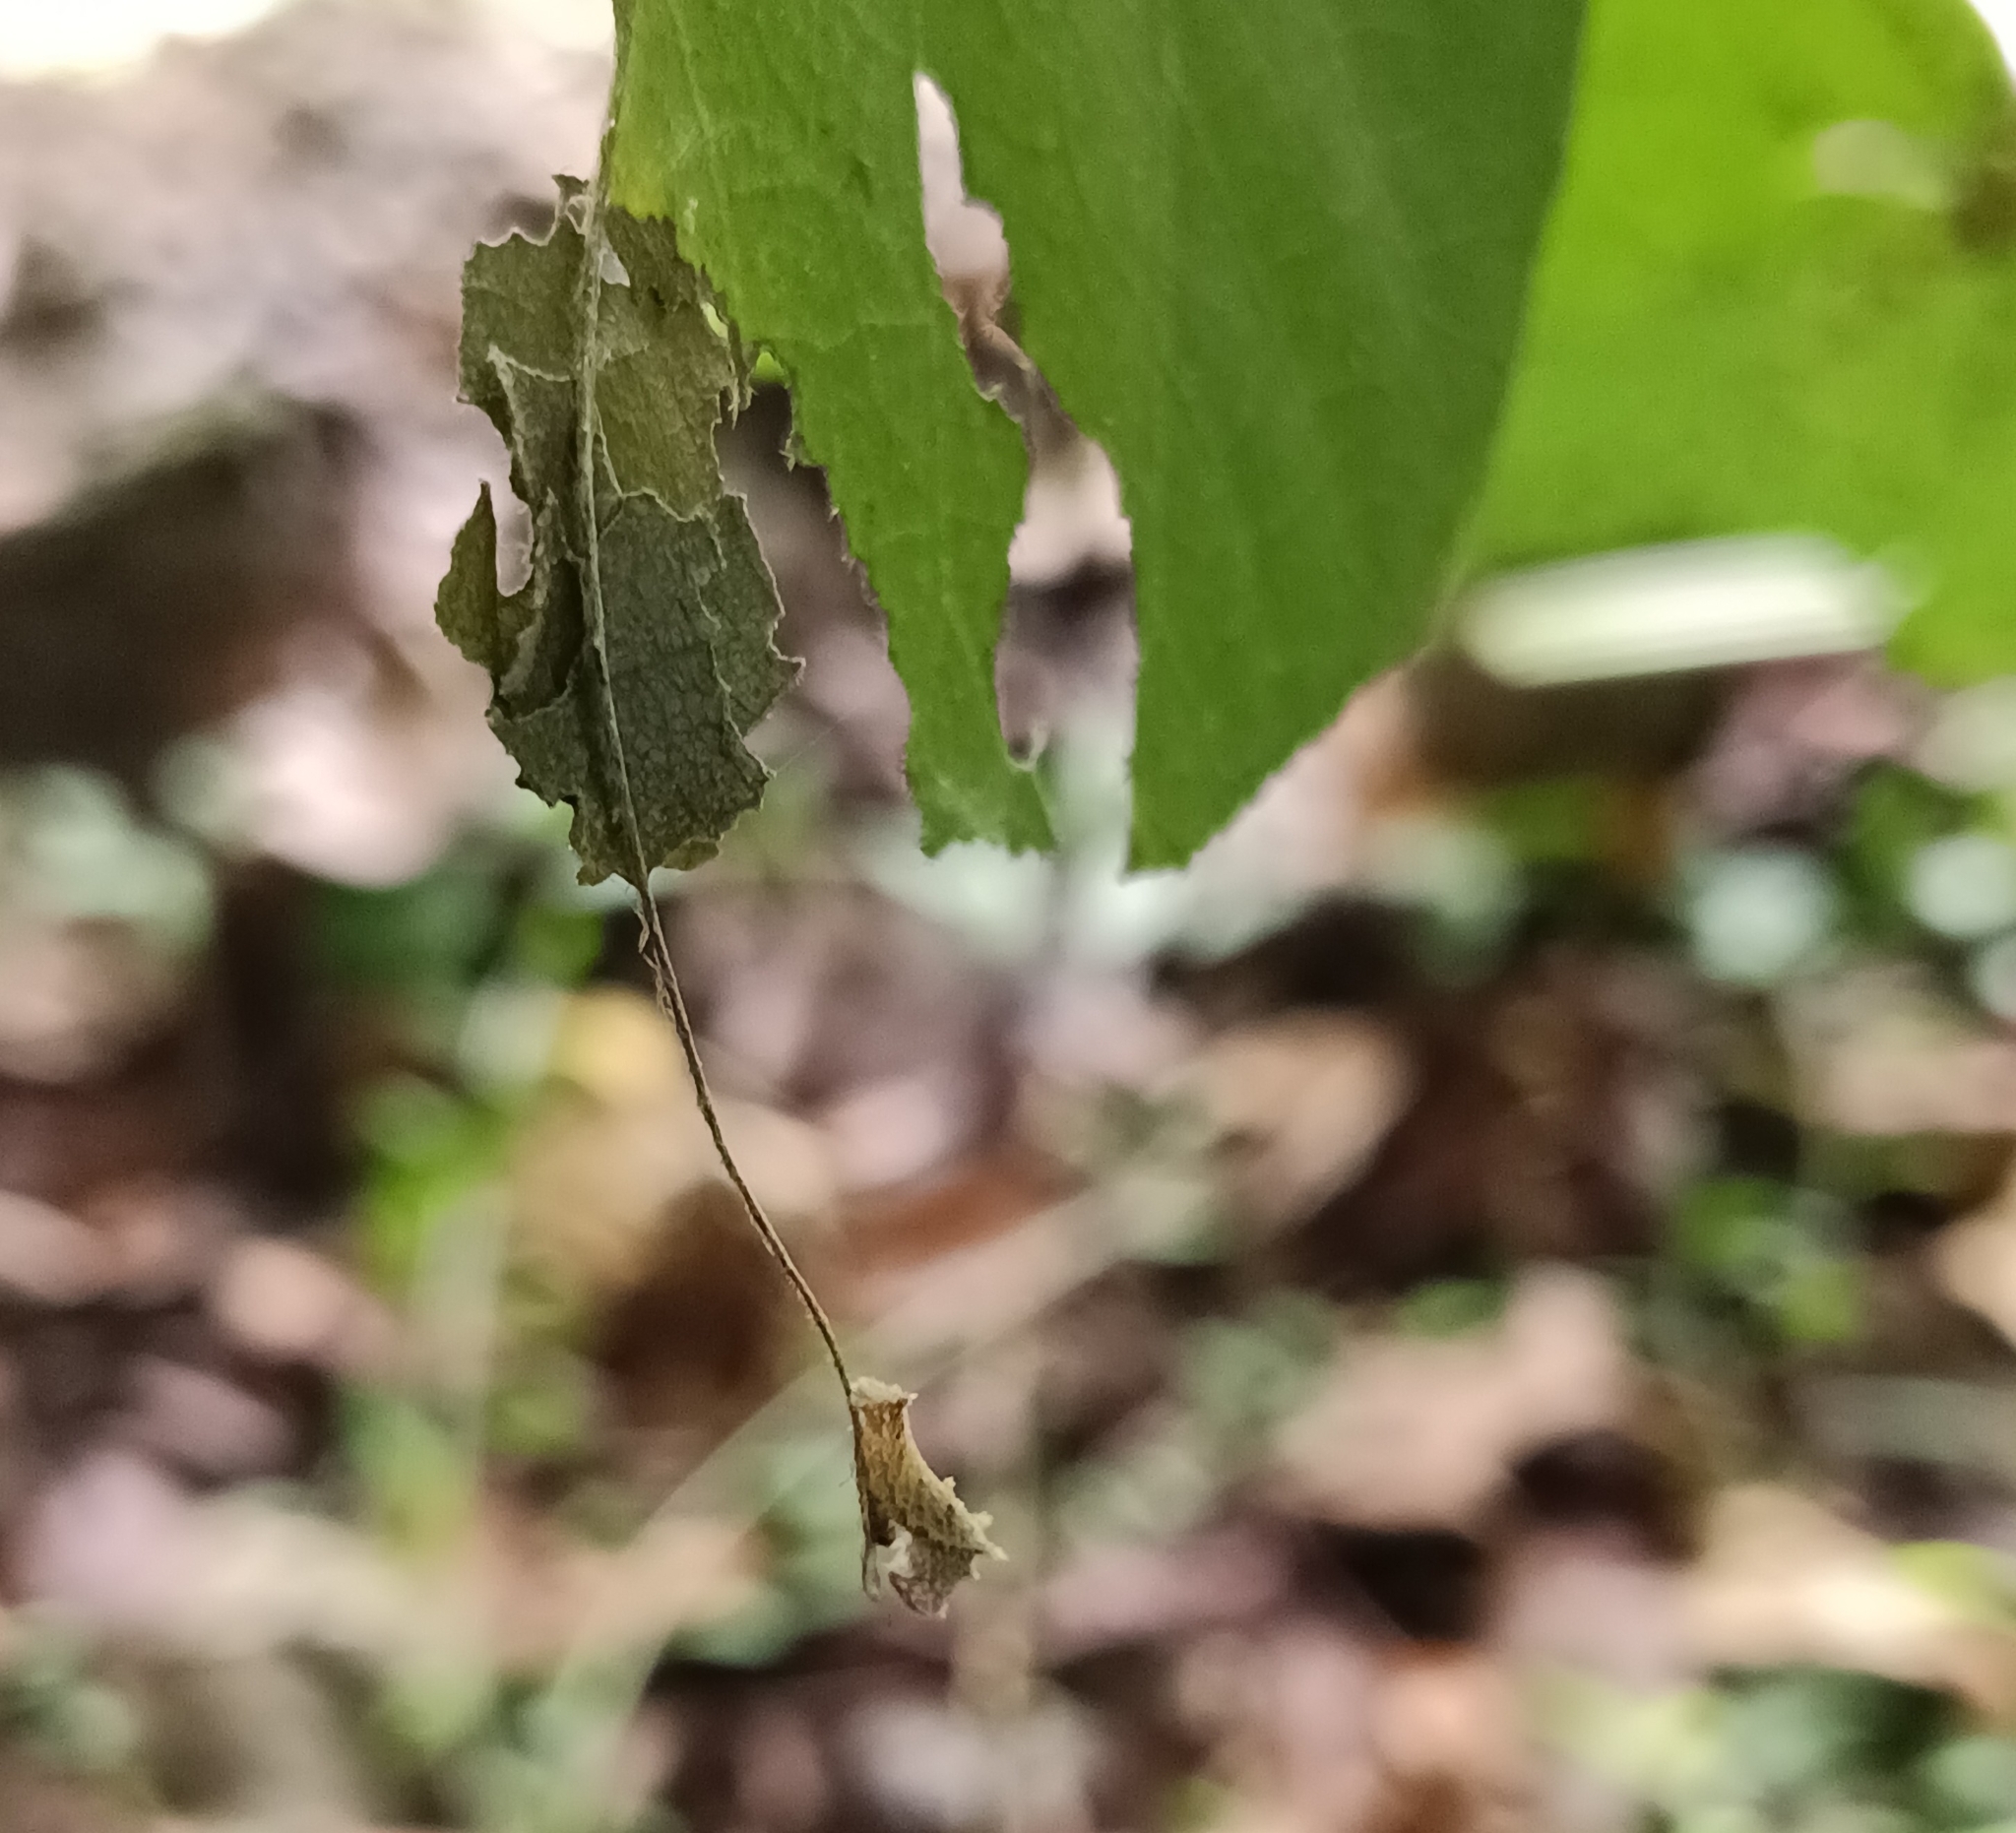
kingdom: Animalia
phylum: Arthropoda
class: Insecta
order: Lepidoptera
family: Nymphalidae
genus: Neptis
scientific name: Neptis jumbah
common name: Chestnut-streaked sailer
